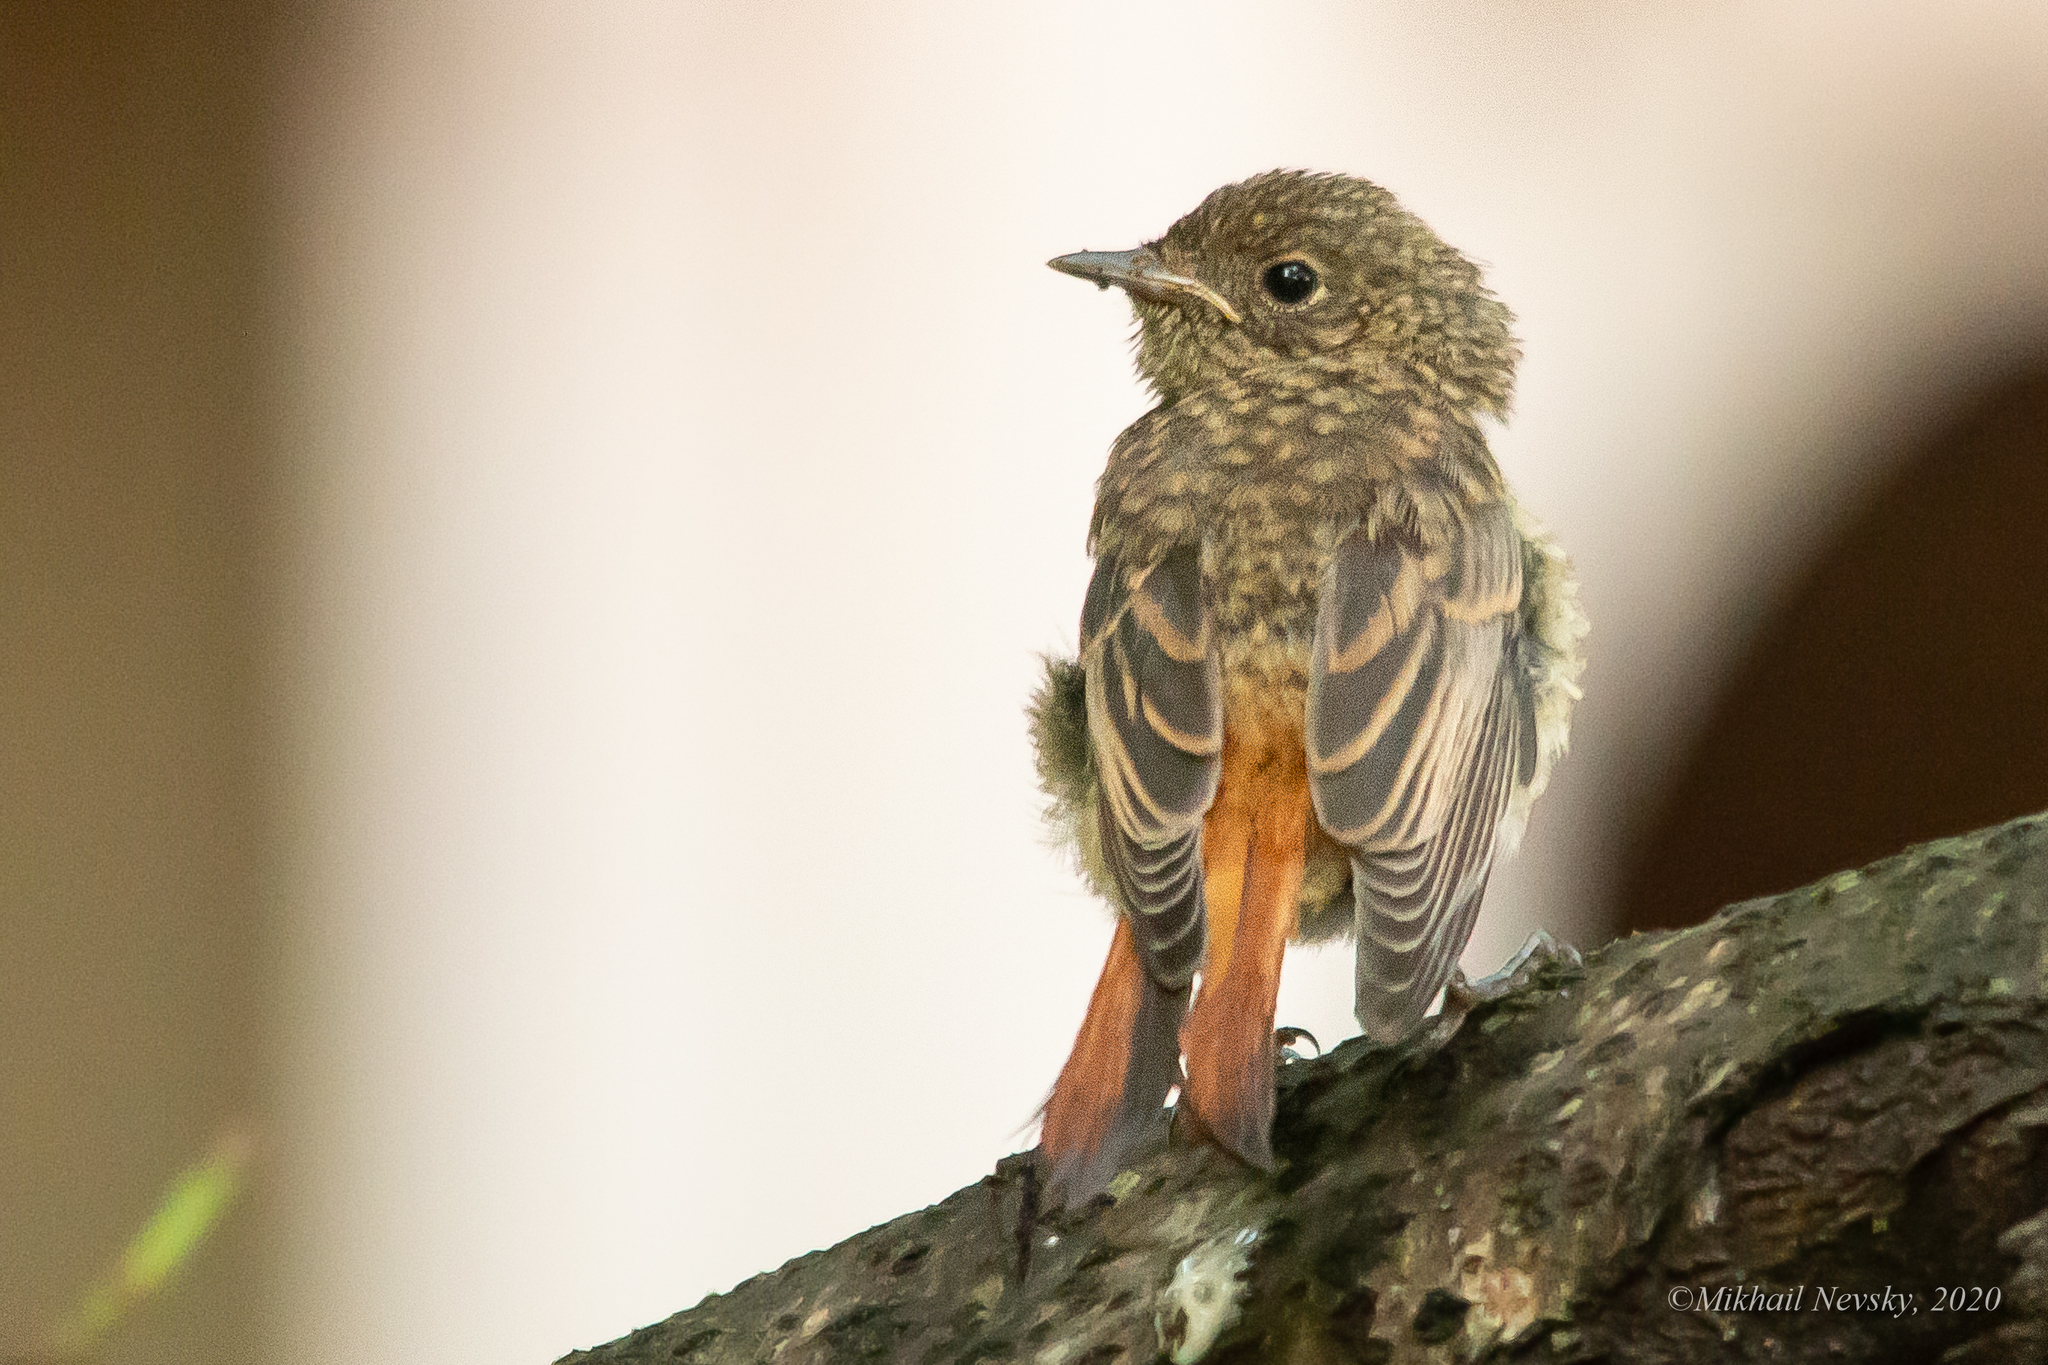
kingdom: Animalia
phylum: Chordata
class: Aves
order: Passeriformes
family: Muscicapidae
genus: Phoenicurus
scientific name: Phoenicurus phoenicurus
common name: Common redstart
